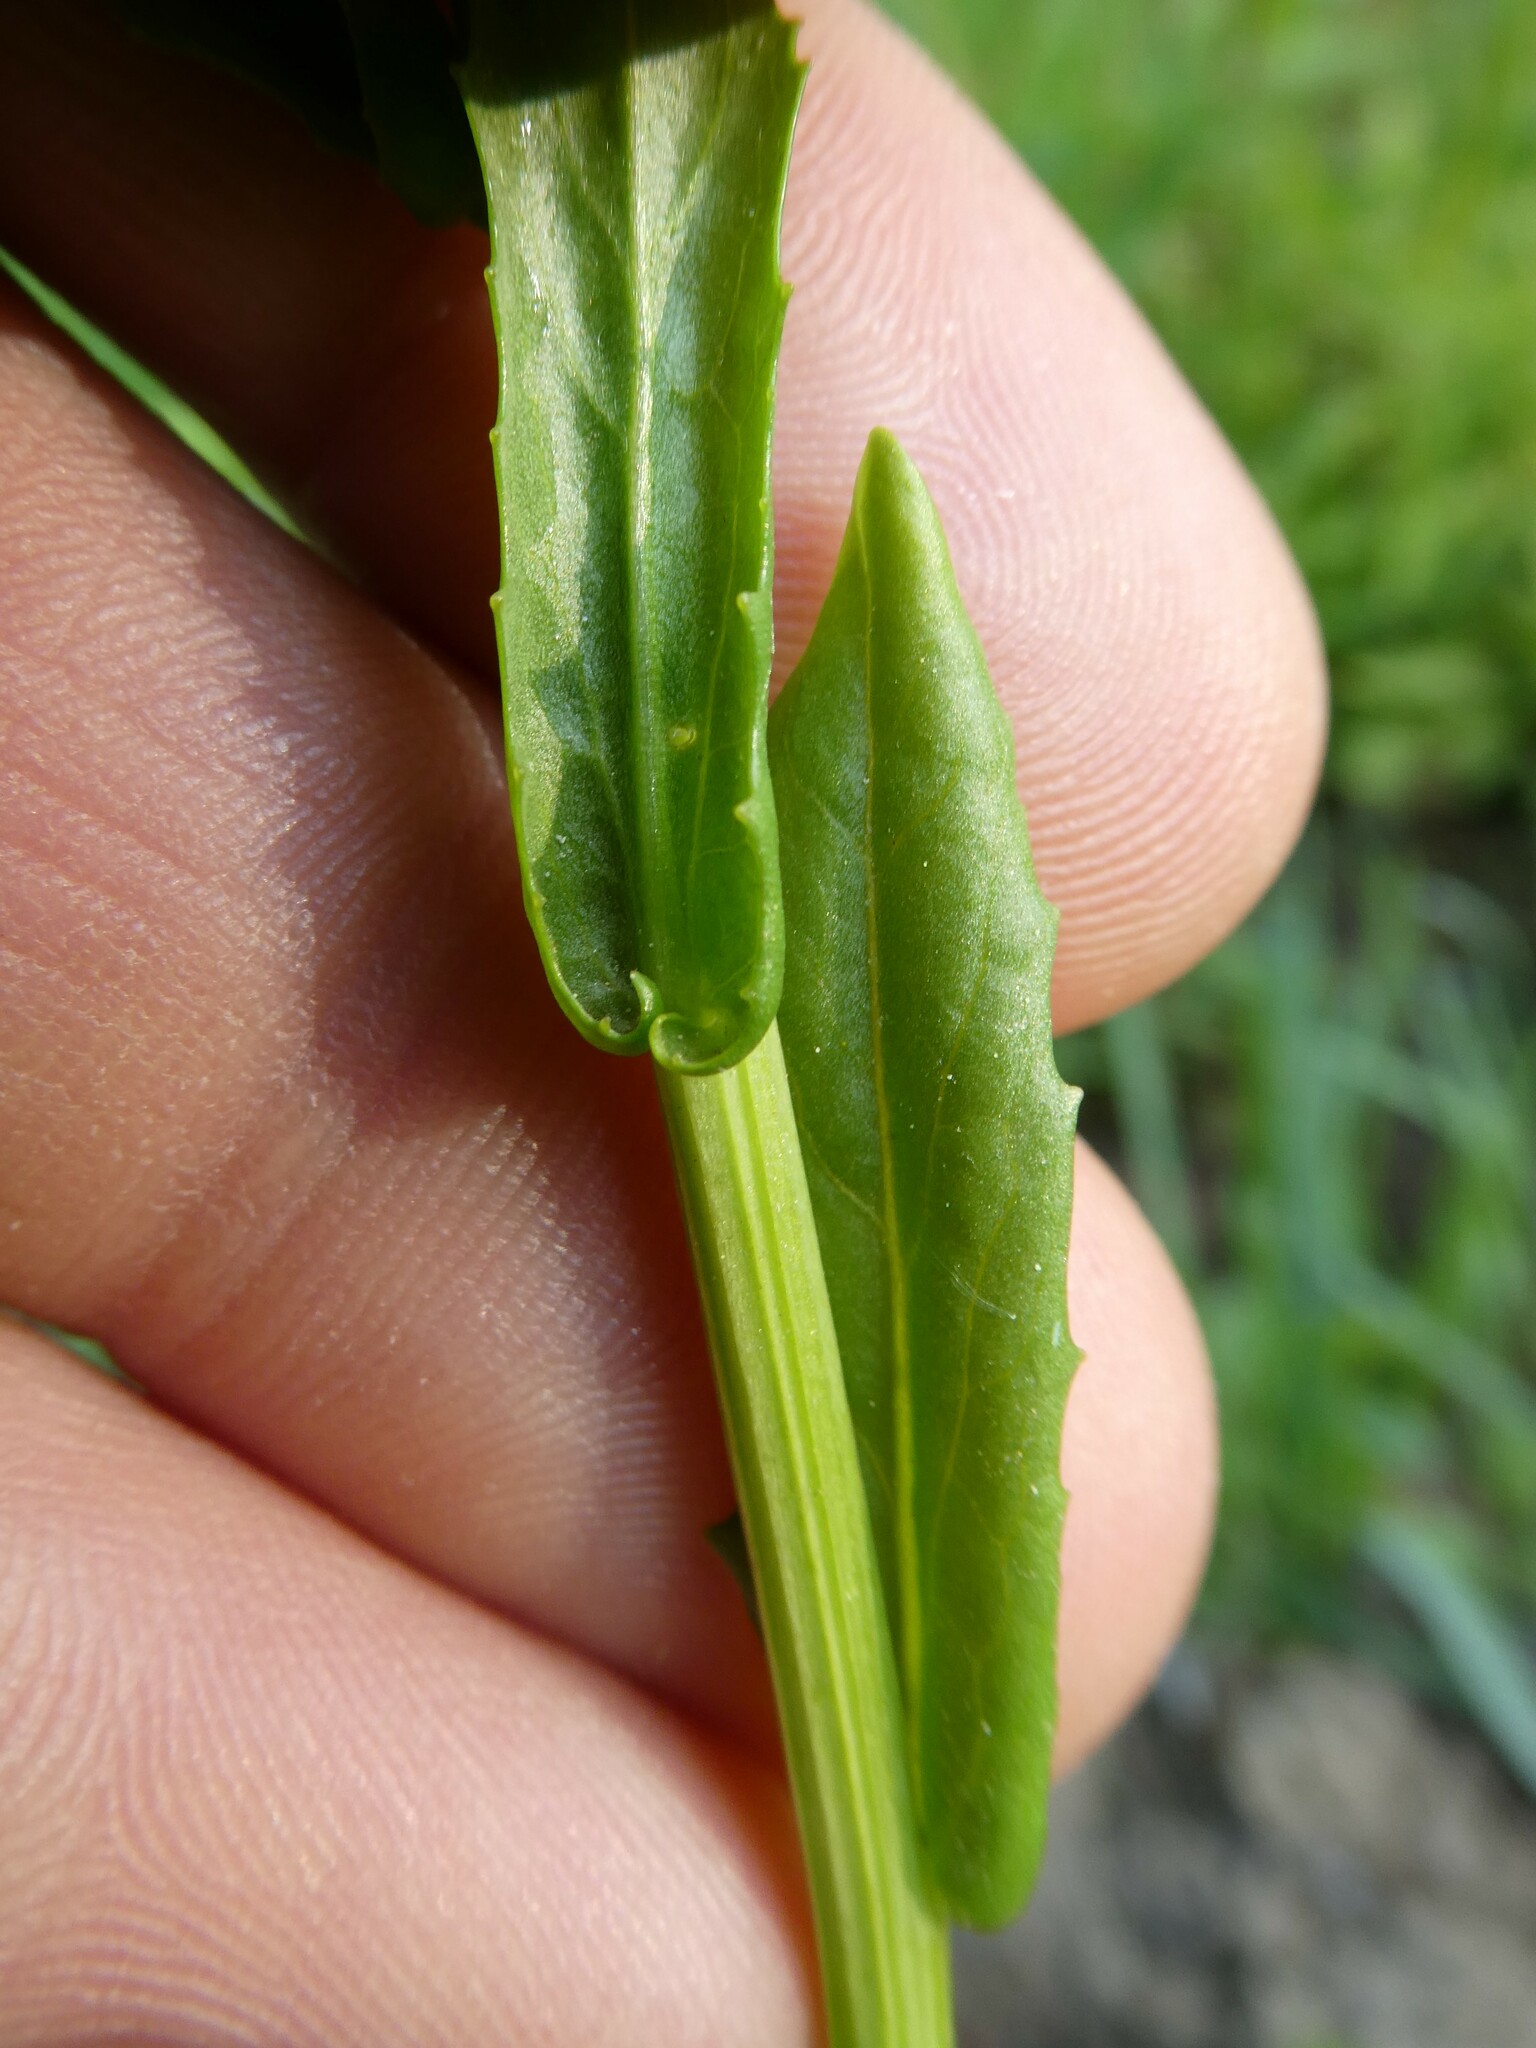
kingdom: Plantae
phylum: Tracheophyta
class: Magnoliopsida
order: Brassicales
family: Brassicaceae
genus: Thlaspi
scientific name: Thlaspi arvense
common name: Field pennycress
